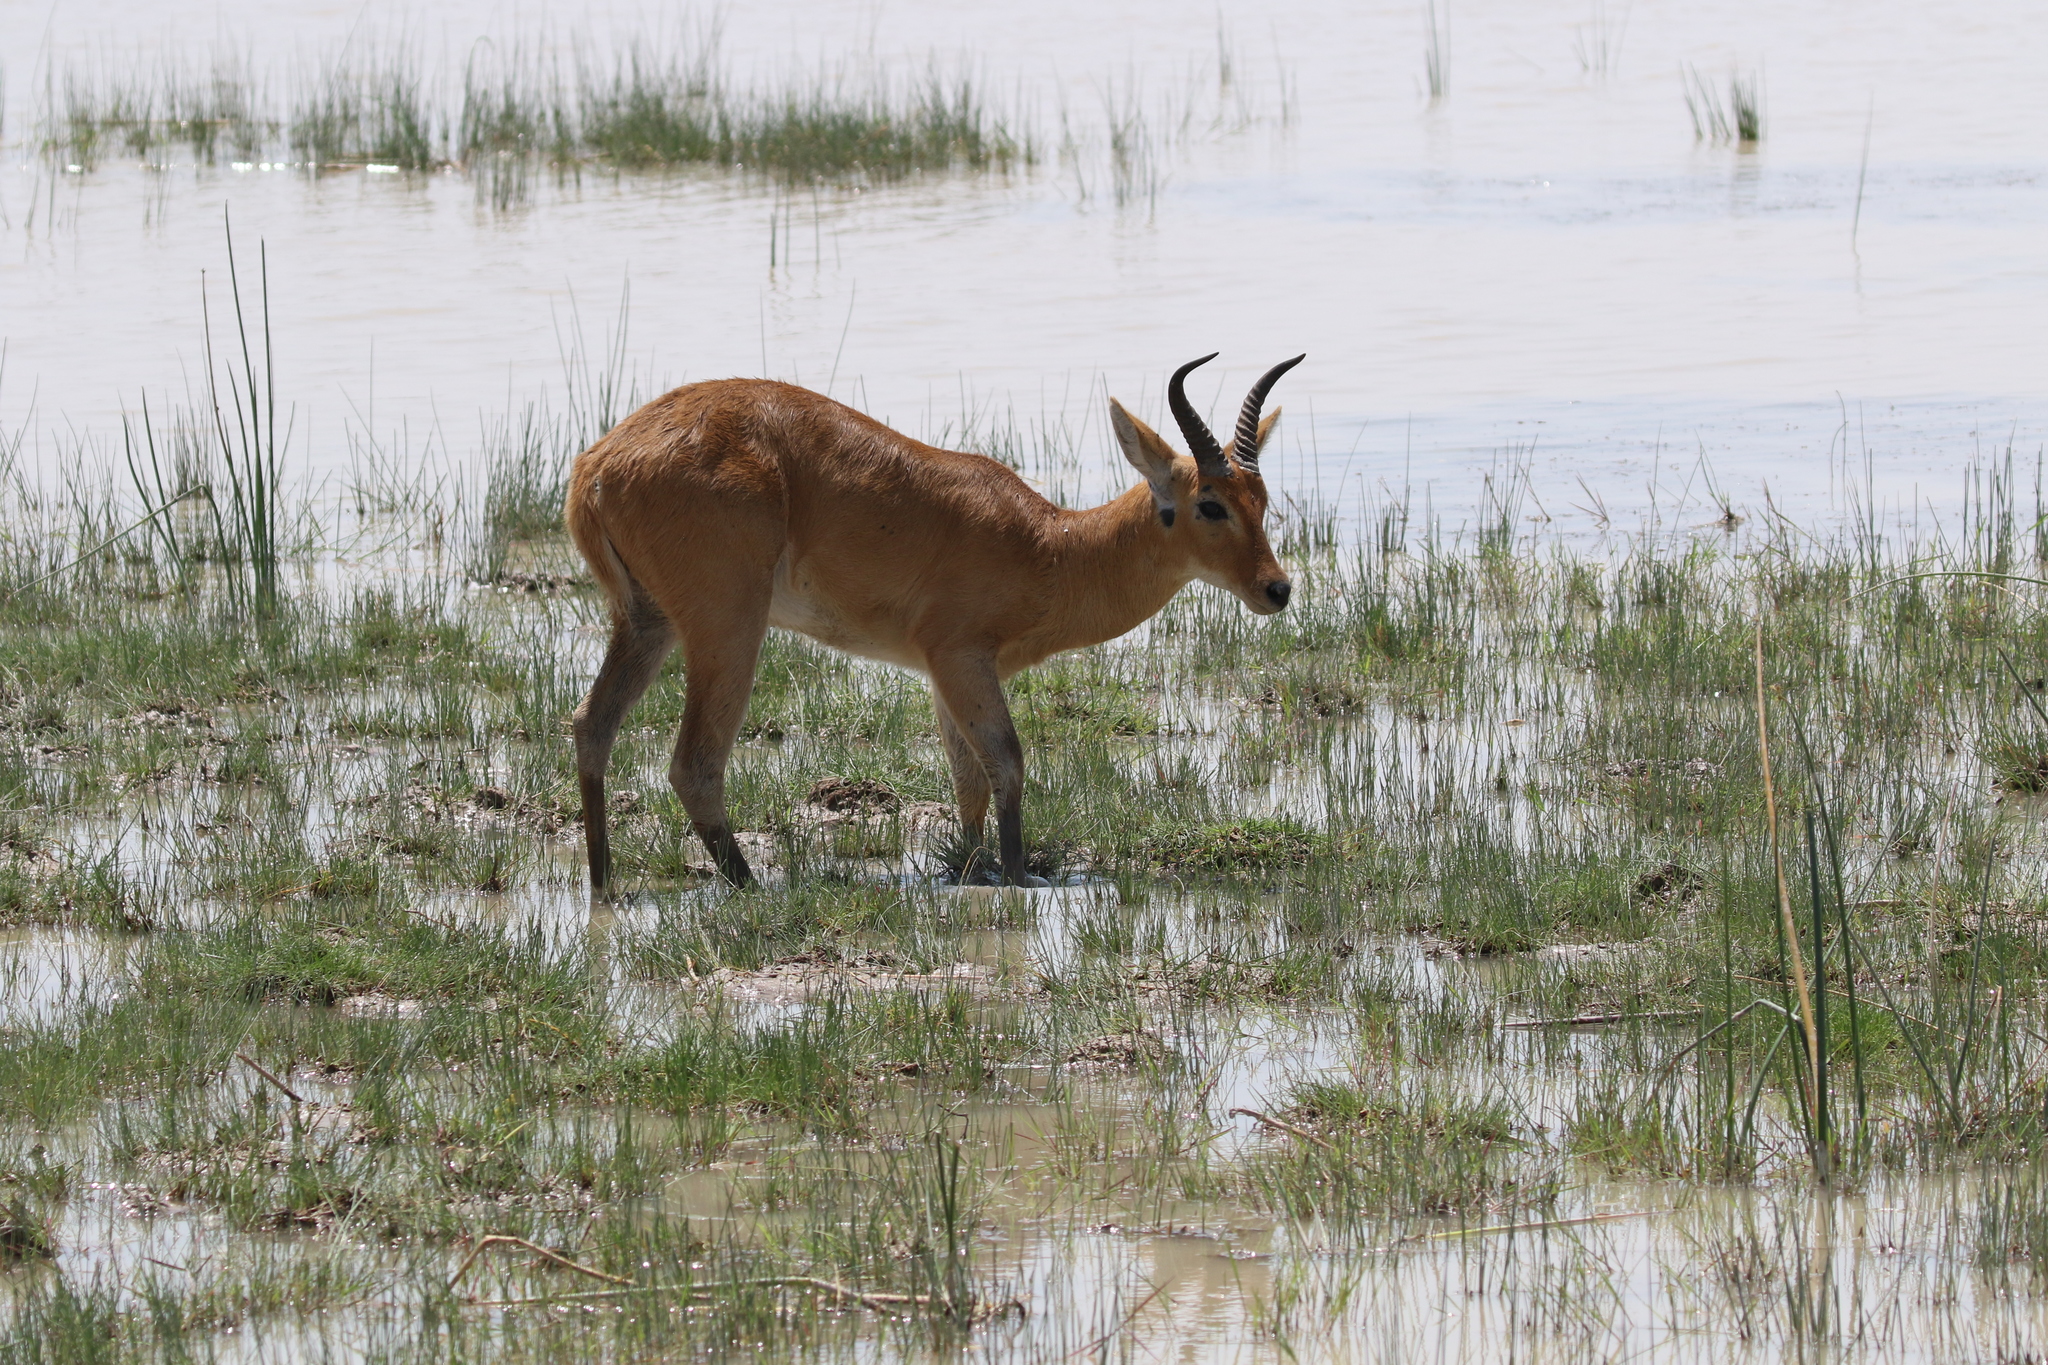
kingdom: Animalia
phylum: Chordata
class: Mammalia
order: Artiodactyla
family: Bovidae
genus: Redunca
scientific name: Redunca redunca
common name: Common reedbuck
